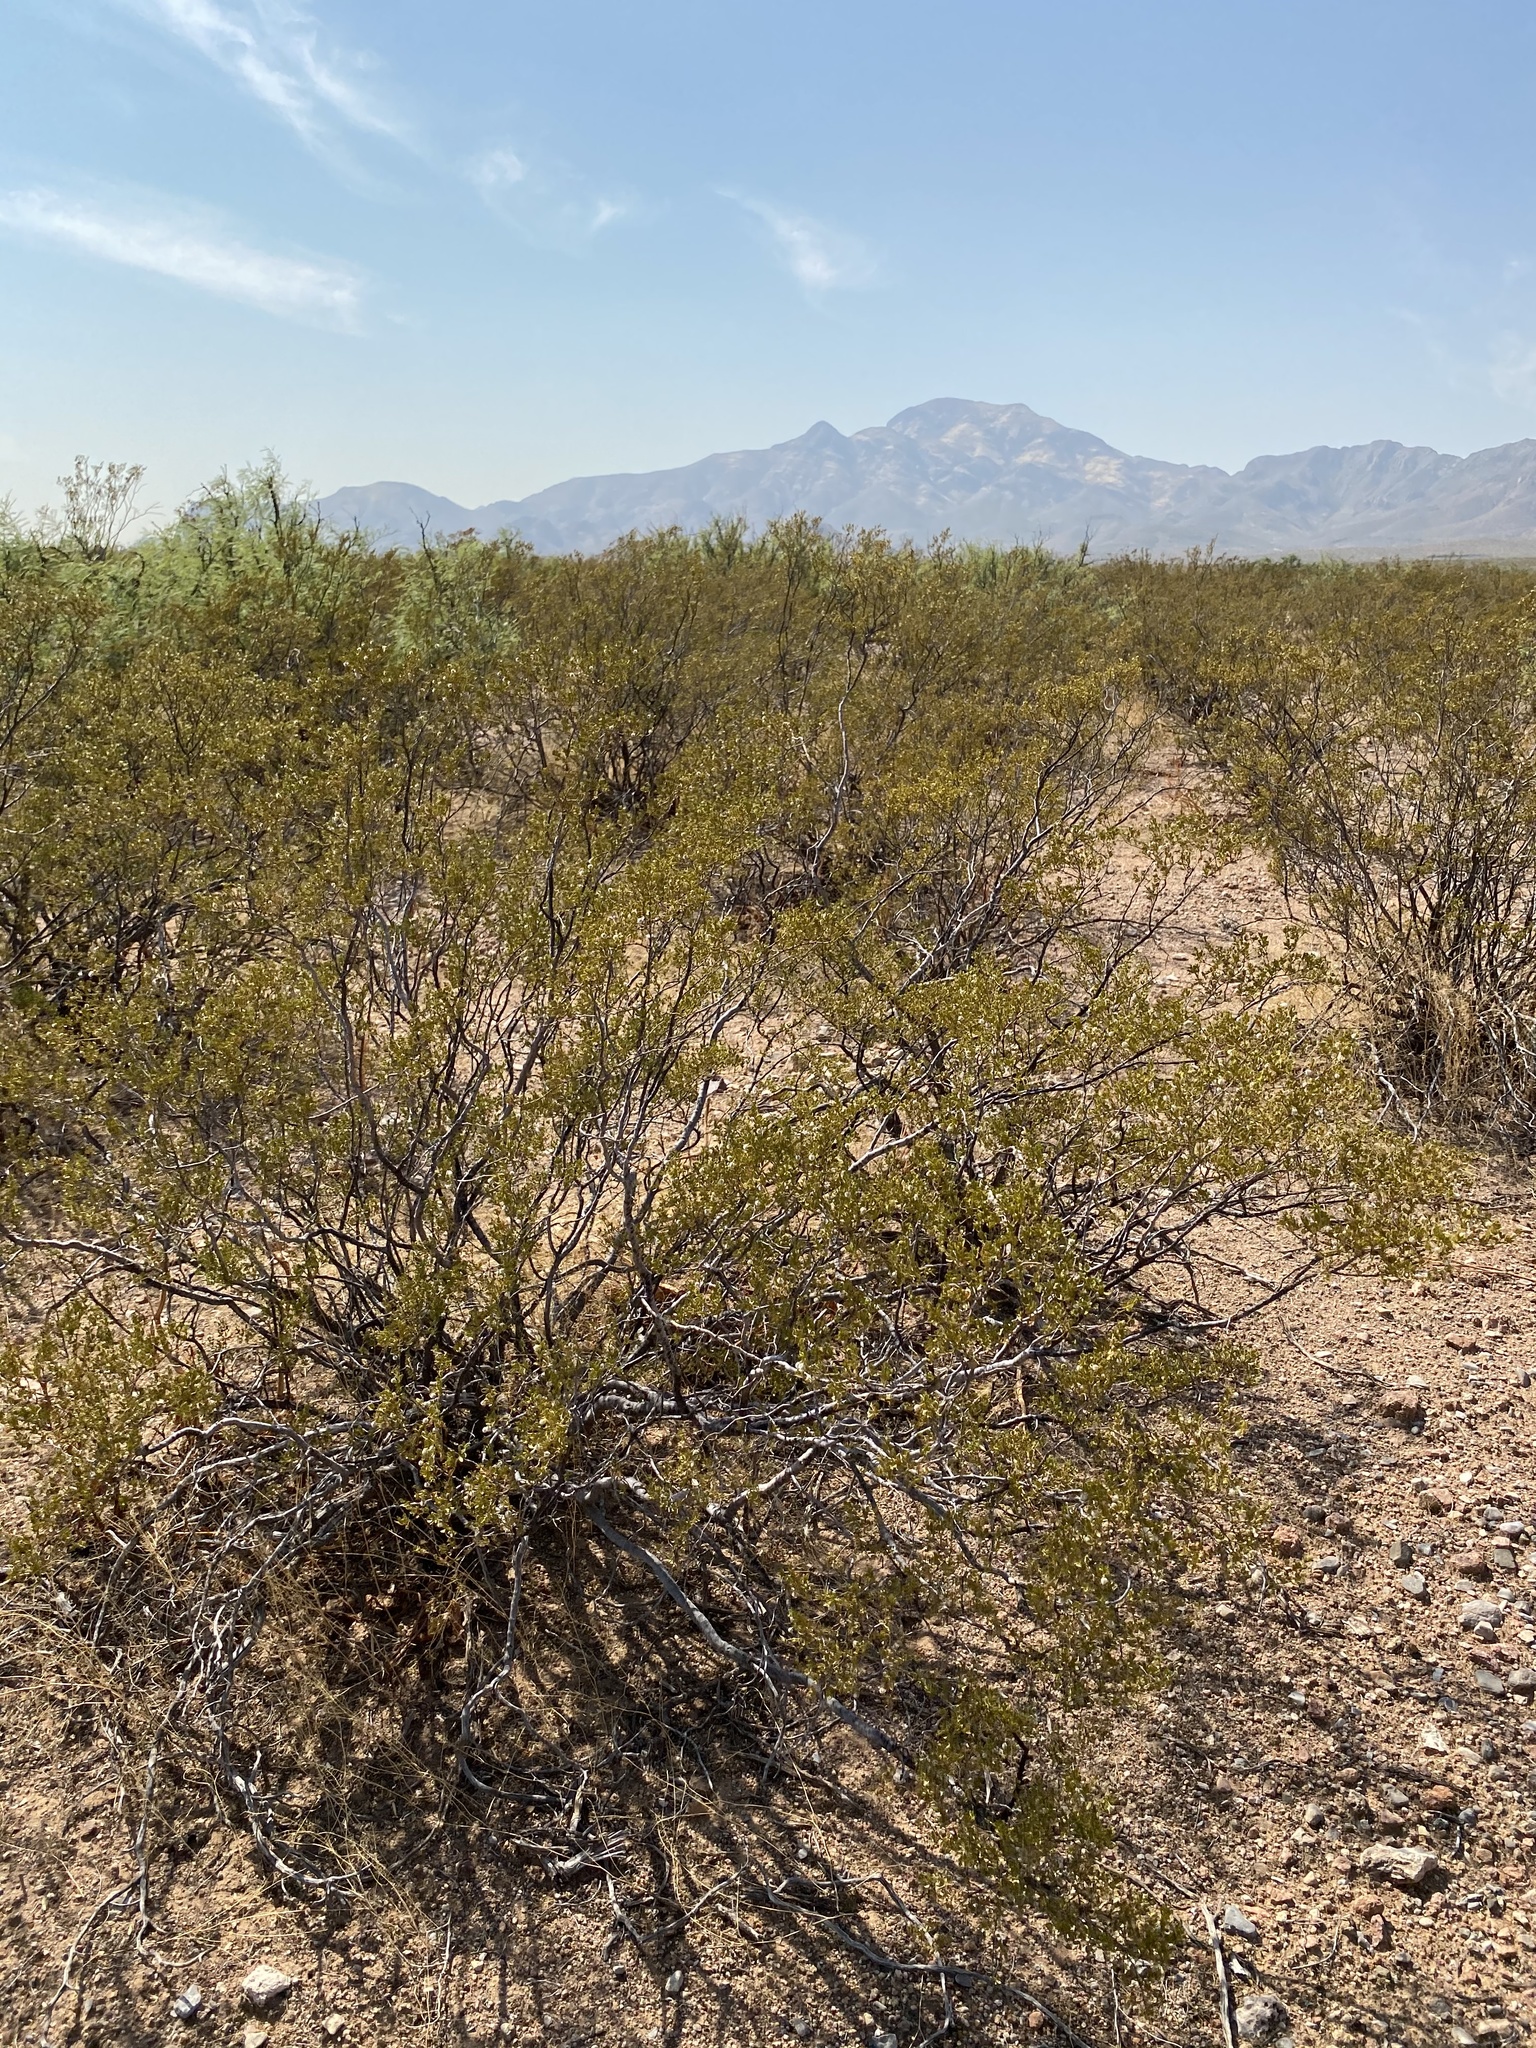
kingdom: Plantae
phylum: Tracheophyta
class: Magnoliopsida
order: Zygophyllales
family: Zygophyllaceae
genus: Larrea
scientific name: Larrea tridentata
